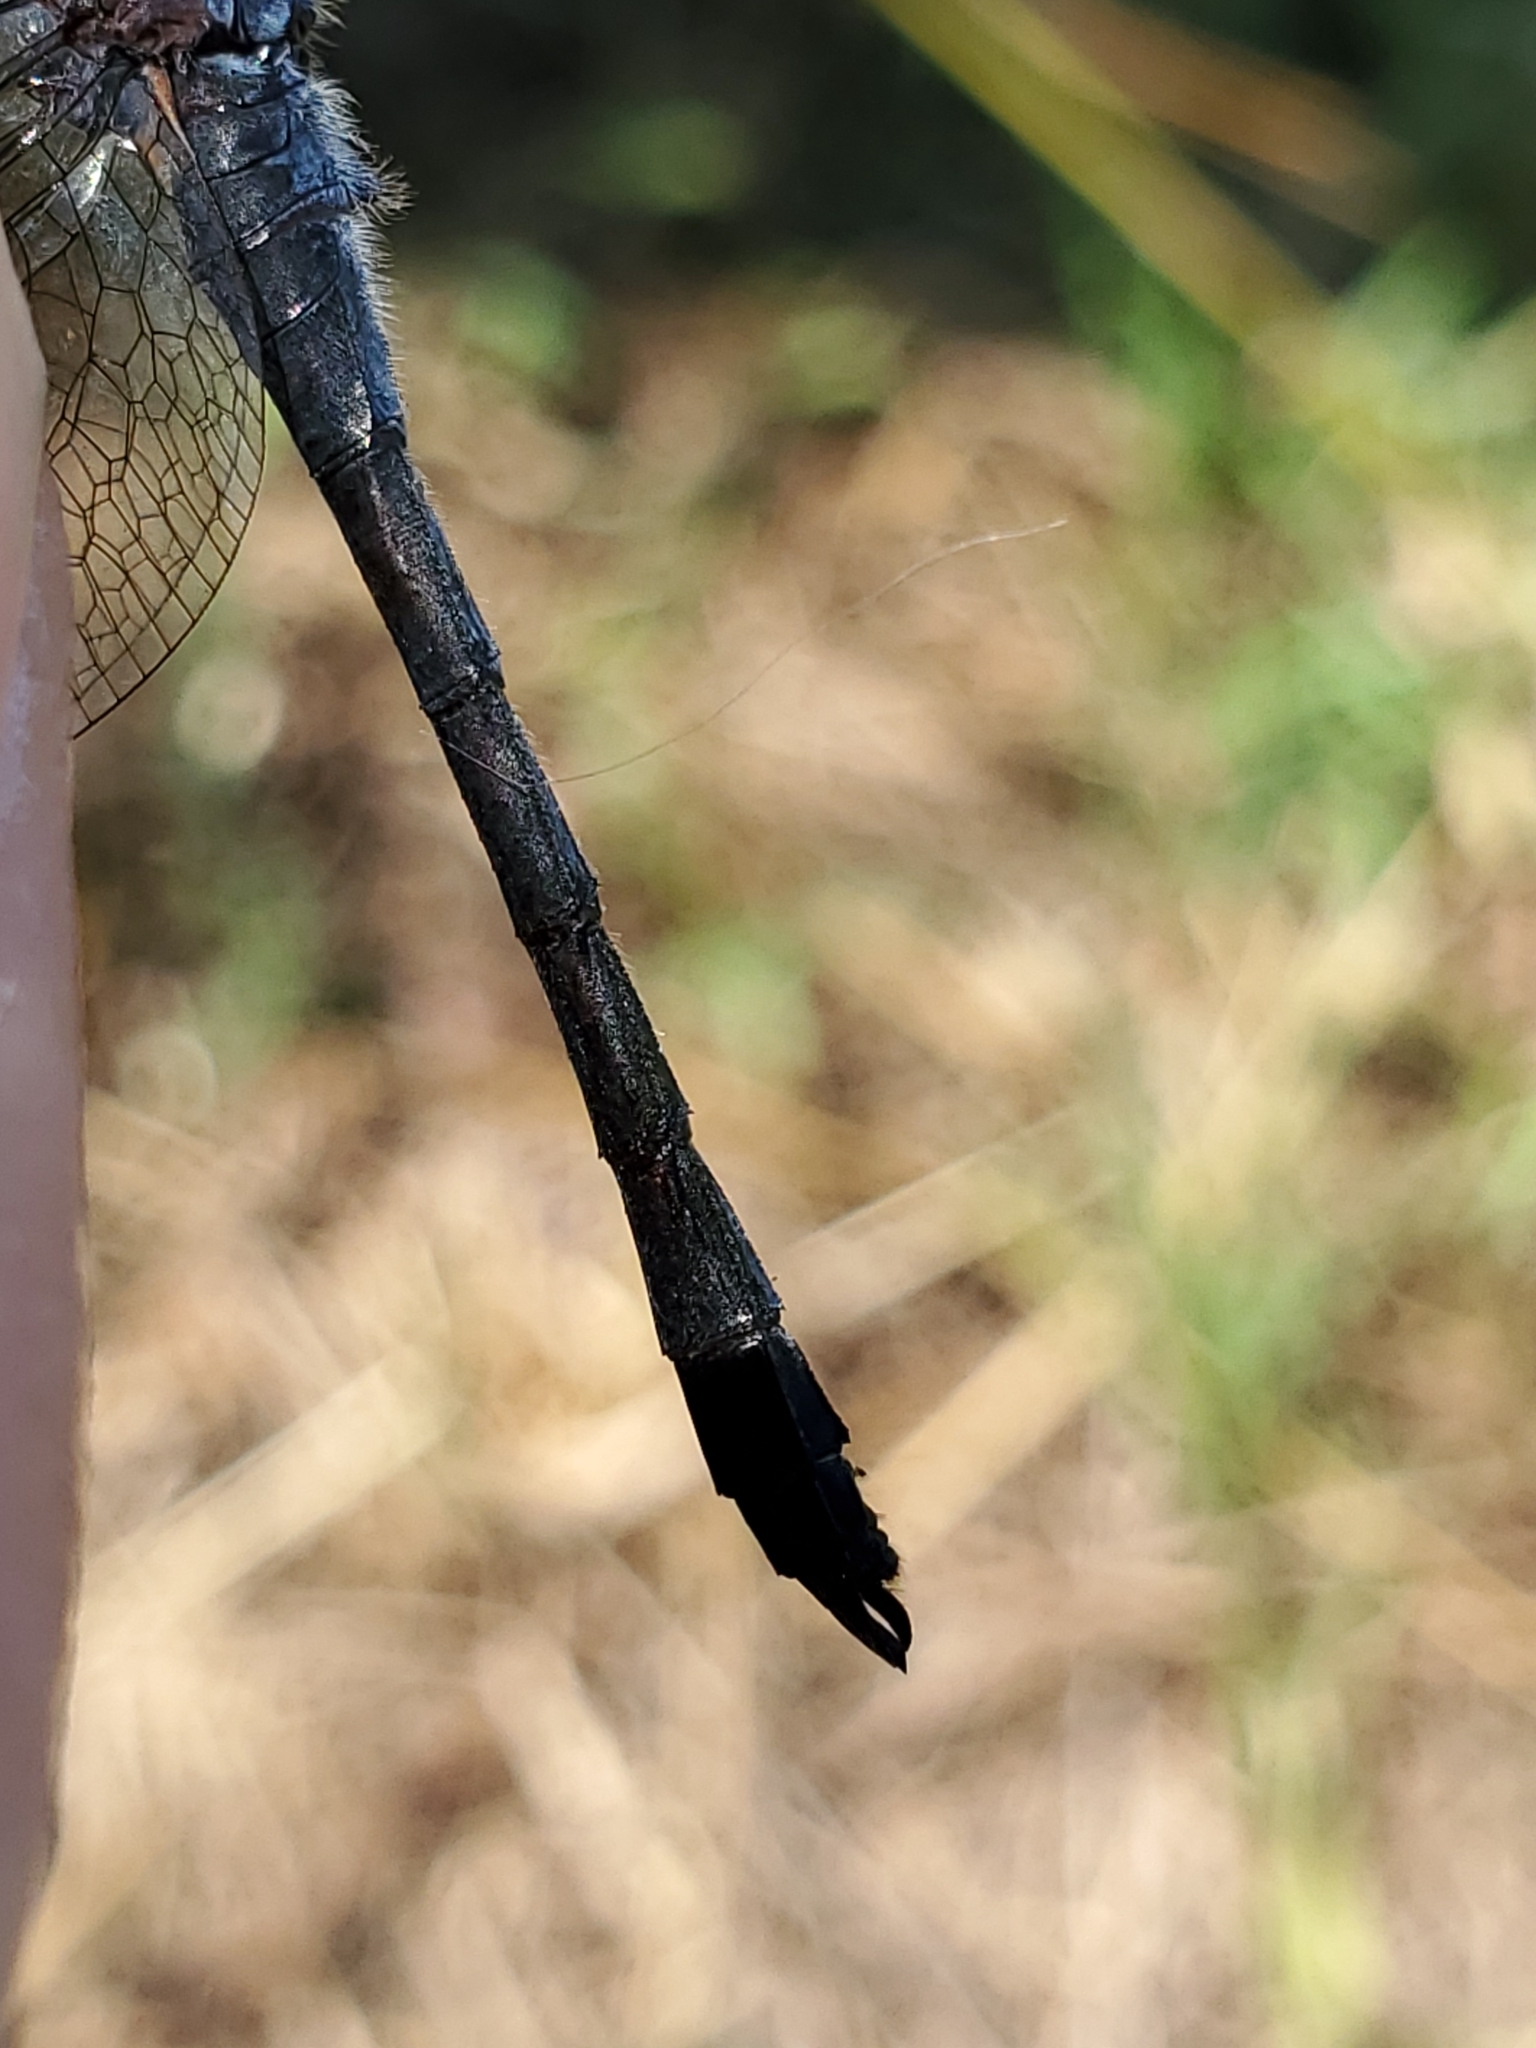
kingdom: Animalia
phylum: Arthropoda
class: Insecta
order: Odonata
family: Libellulidae
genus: Erythrodiplax
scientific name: Erythrodiplax berenice
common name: Seaside dragonlet
